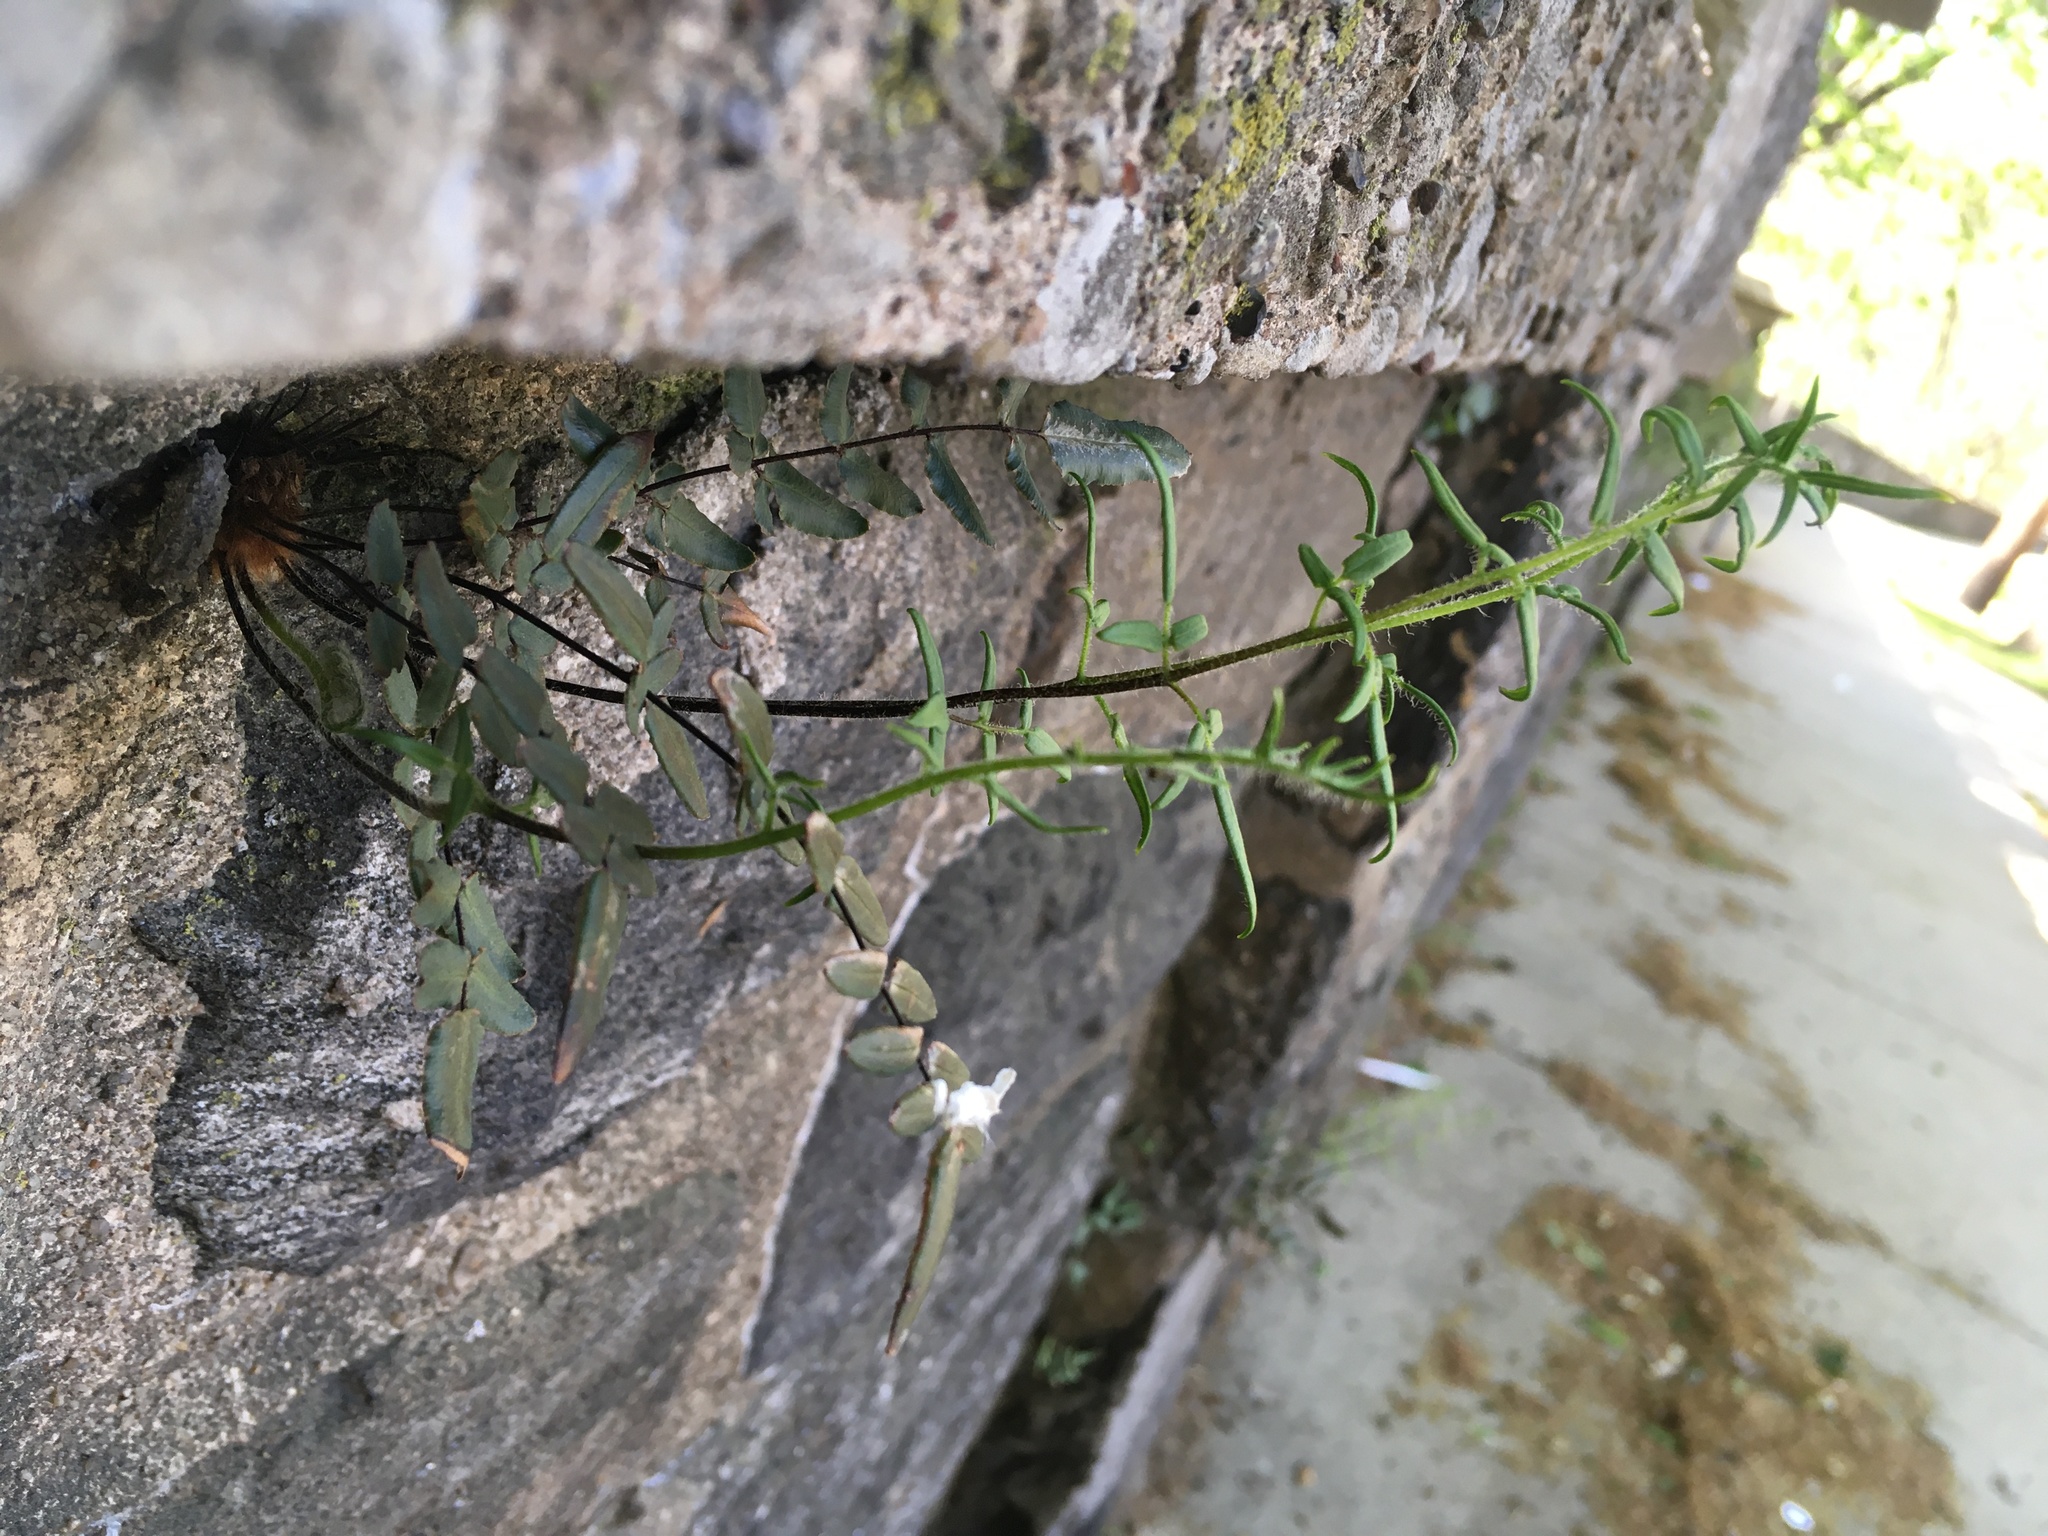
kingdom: Plantae
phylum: Tracheophyta
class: Polypodiopsida
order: Polypodiales
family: Pteridaceae
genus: Pellaea
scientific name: Pellaea atropurpurea
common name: Hairy cliffbrake
